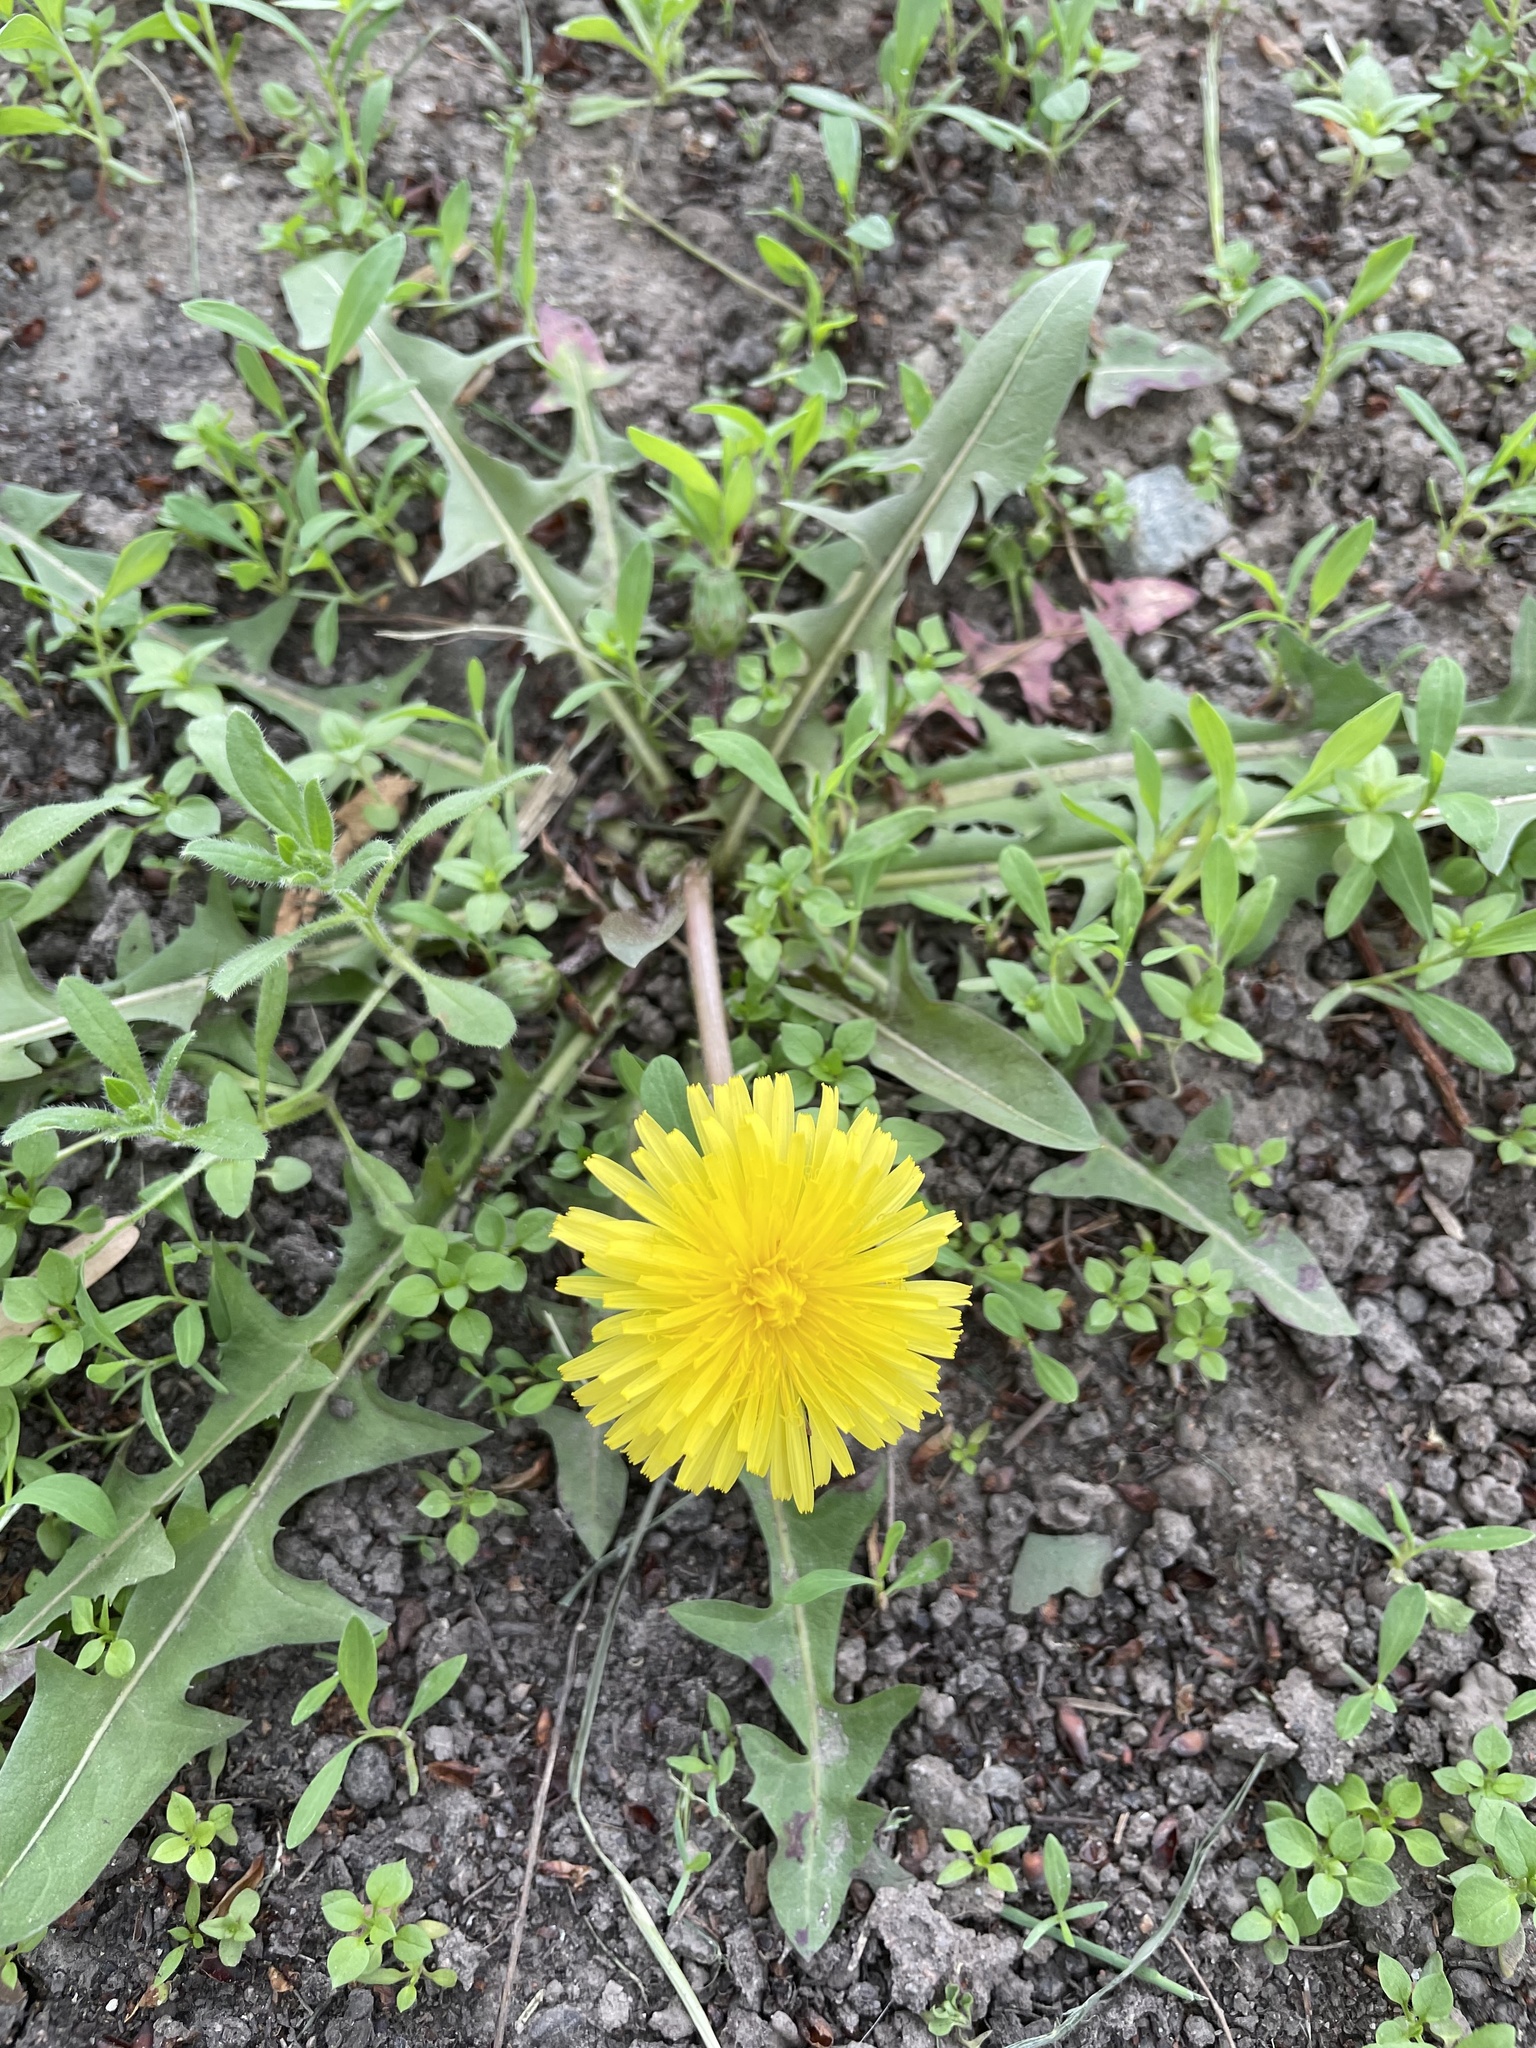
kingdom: Plantae
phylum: Tracheophyta
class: Magnoliopsida
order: Asterales
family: Asteraceae
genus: Taraxacum
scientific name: Taraxacum officinale
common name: Common dandelion
